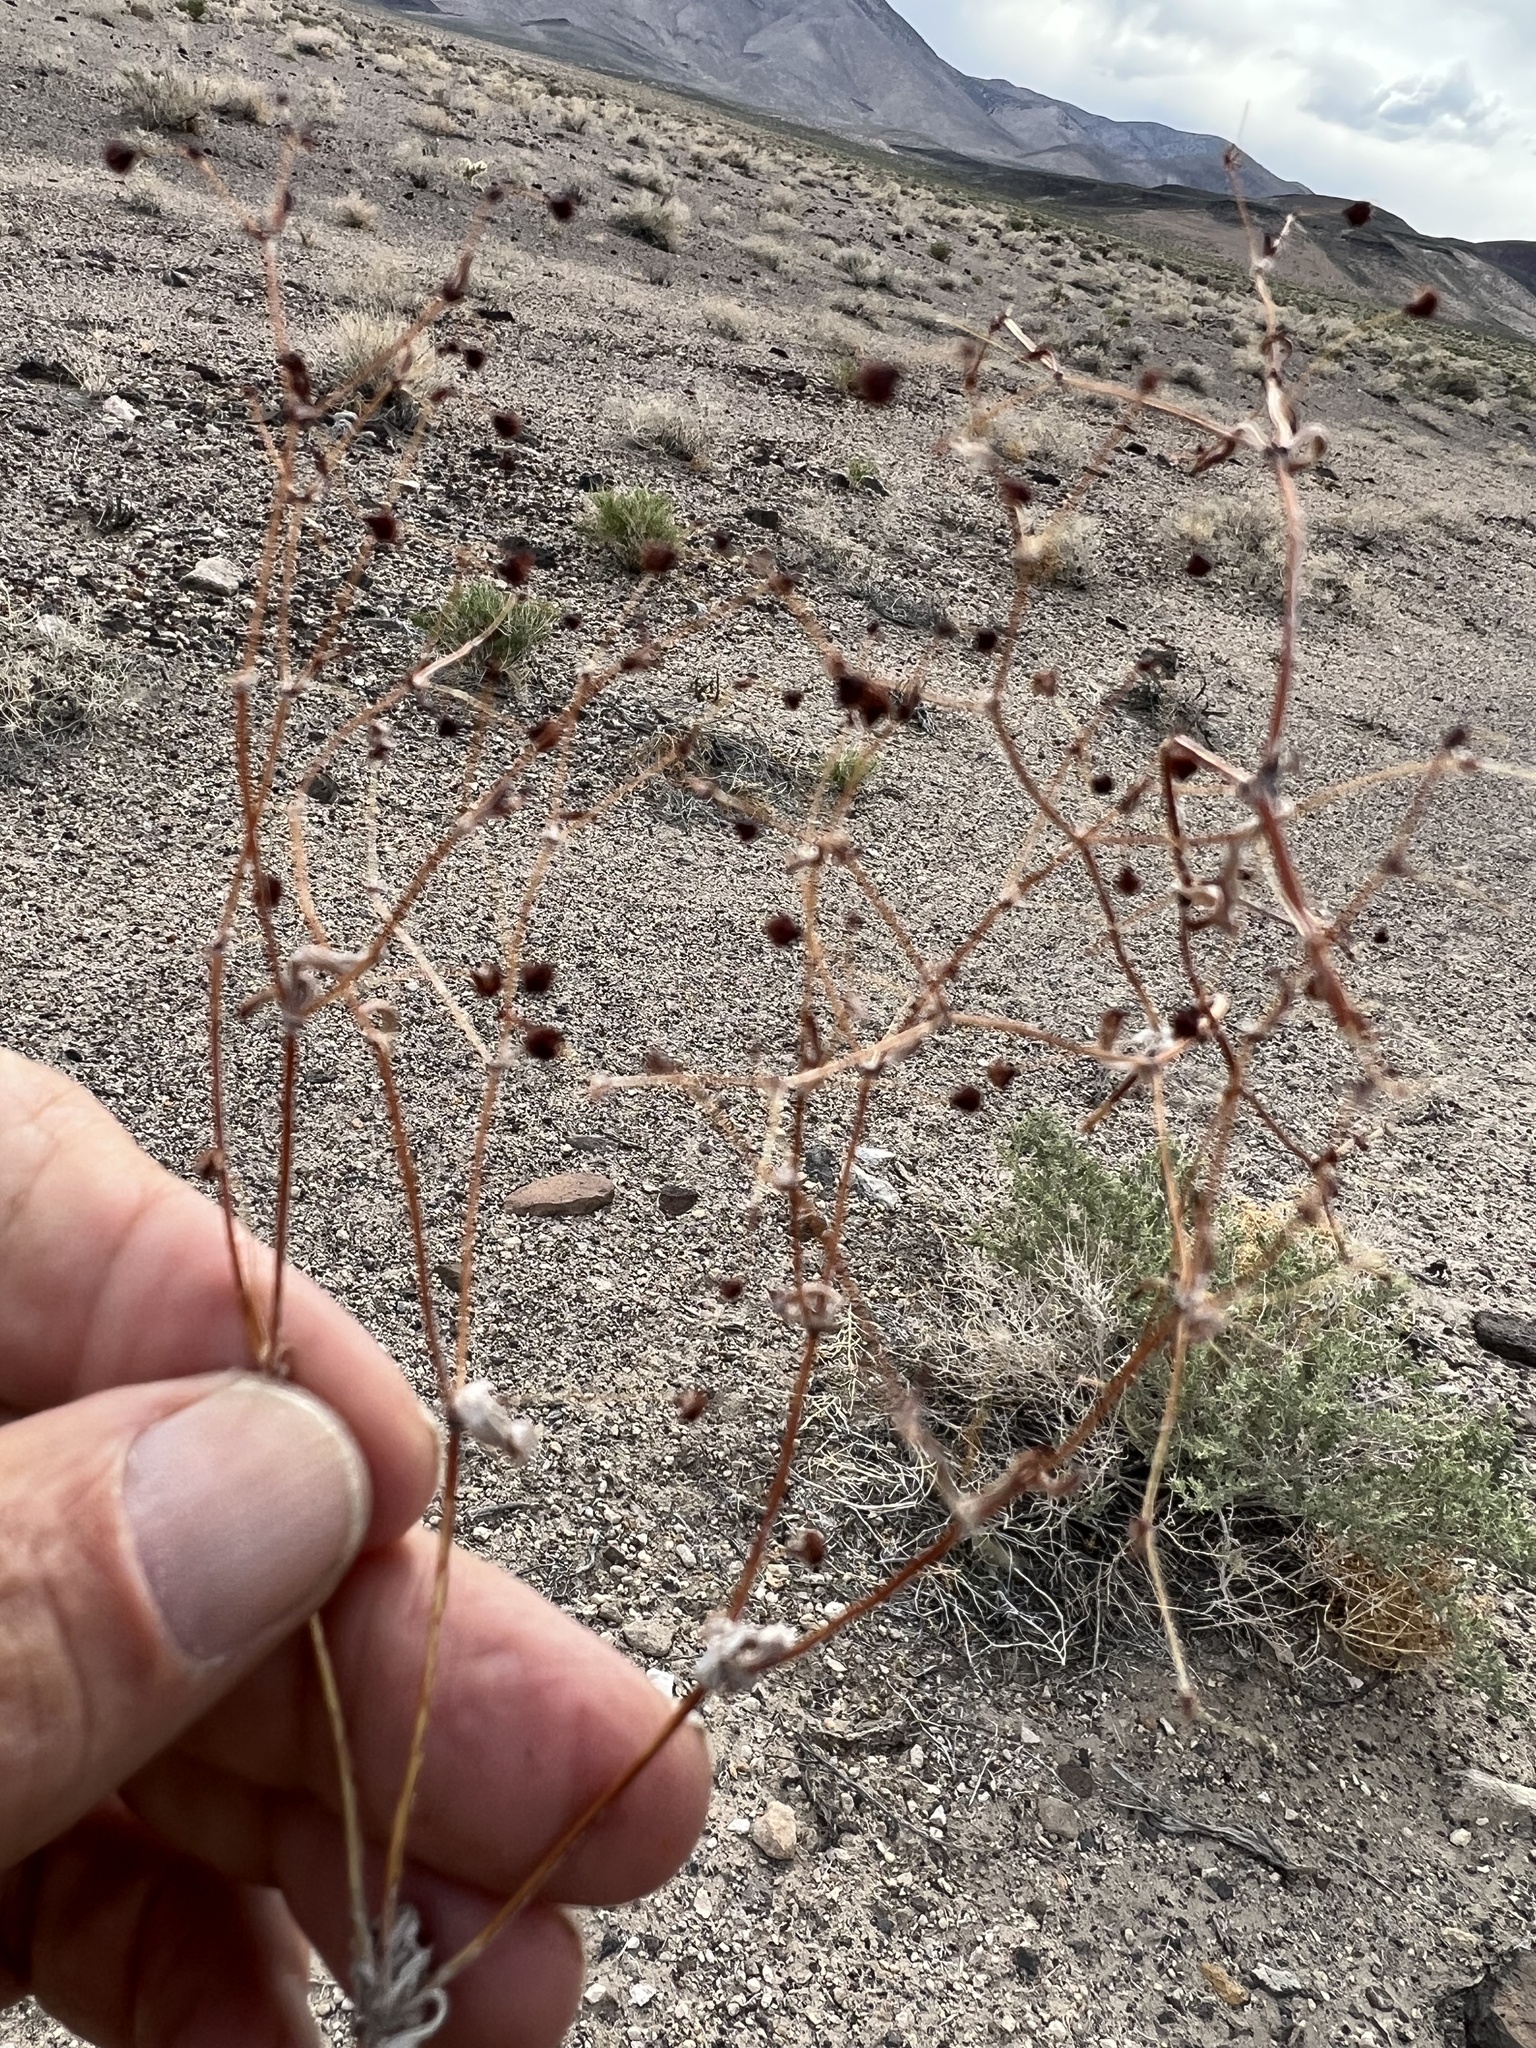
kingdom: Plantae
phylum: Tracheophyta
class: Magnoliopsida
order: Caryophyllales
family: Polygonaceae
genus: Eriogonum
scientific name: Eriogonum maculatum
